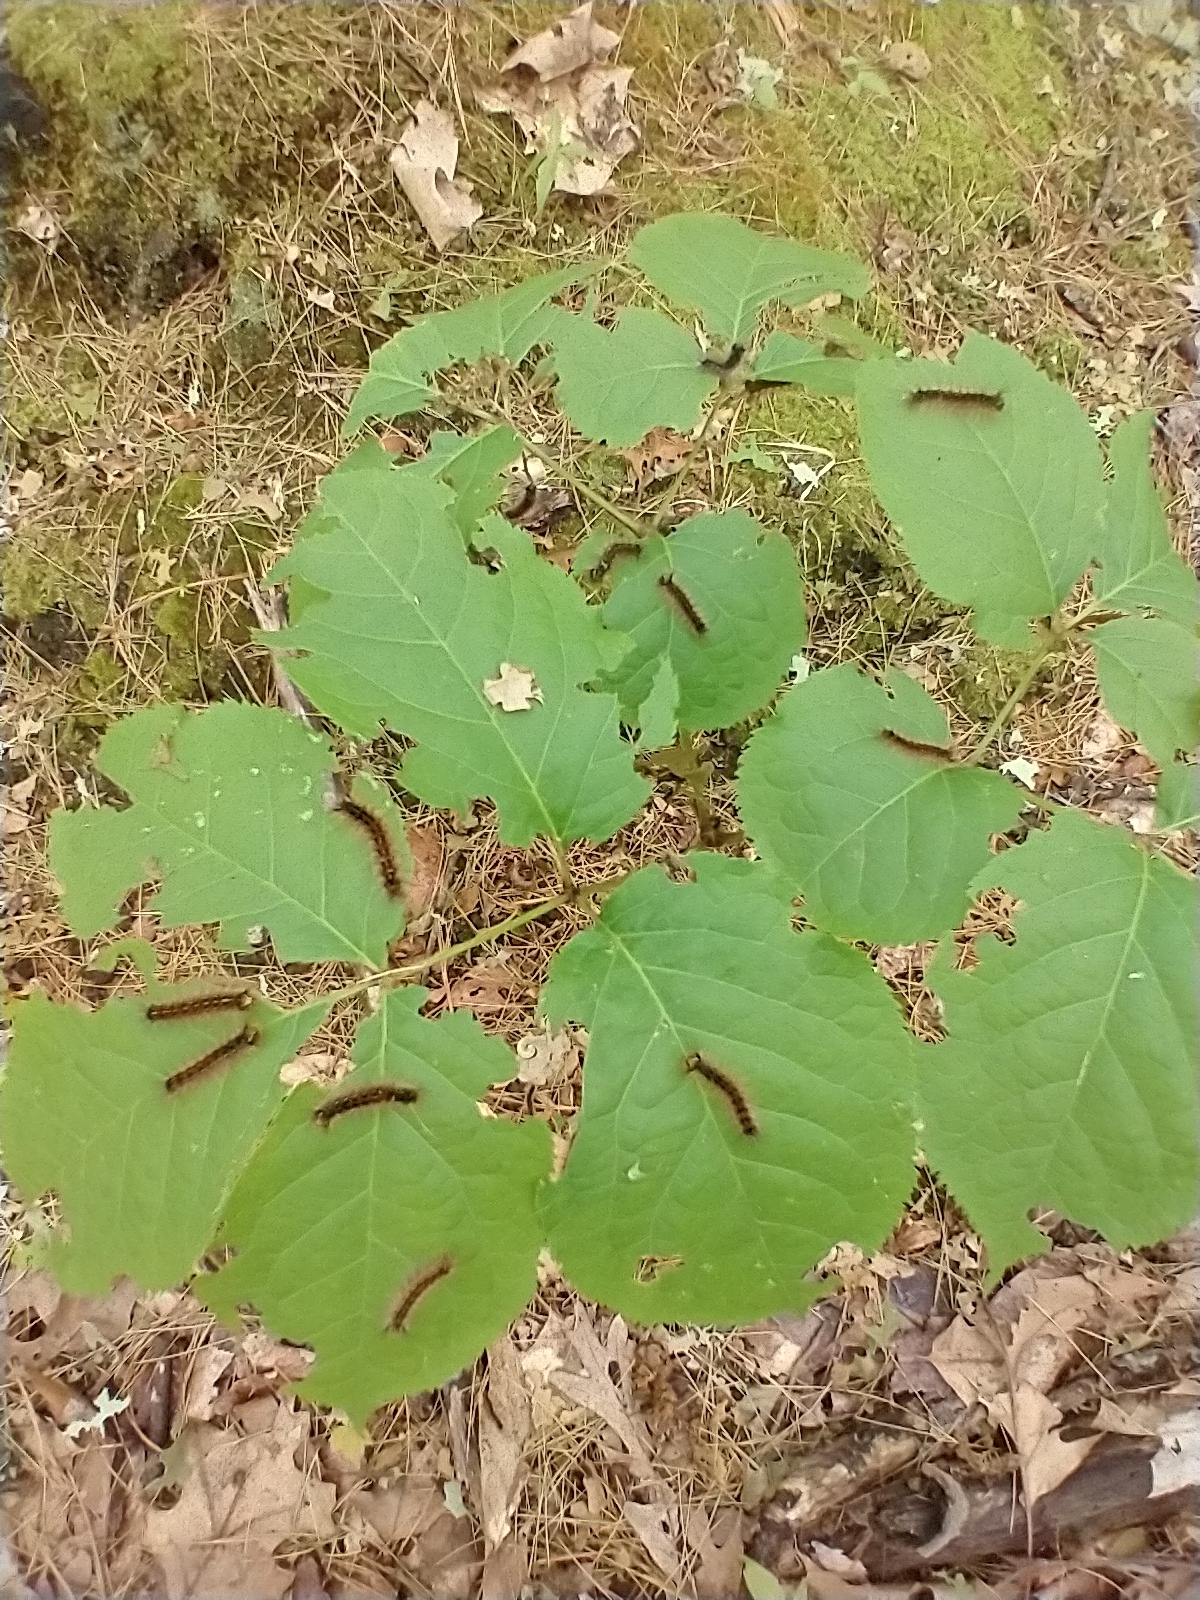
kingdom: Animalia
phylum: Arthropoda
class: Insecta
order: Lepidoptera
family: Erebidae
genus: Lymantria
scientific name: Lymantria dispar
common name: Gypsy moth
